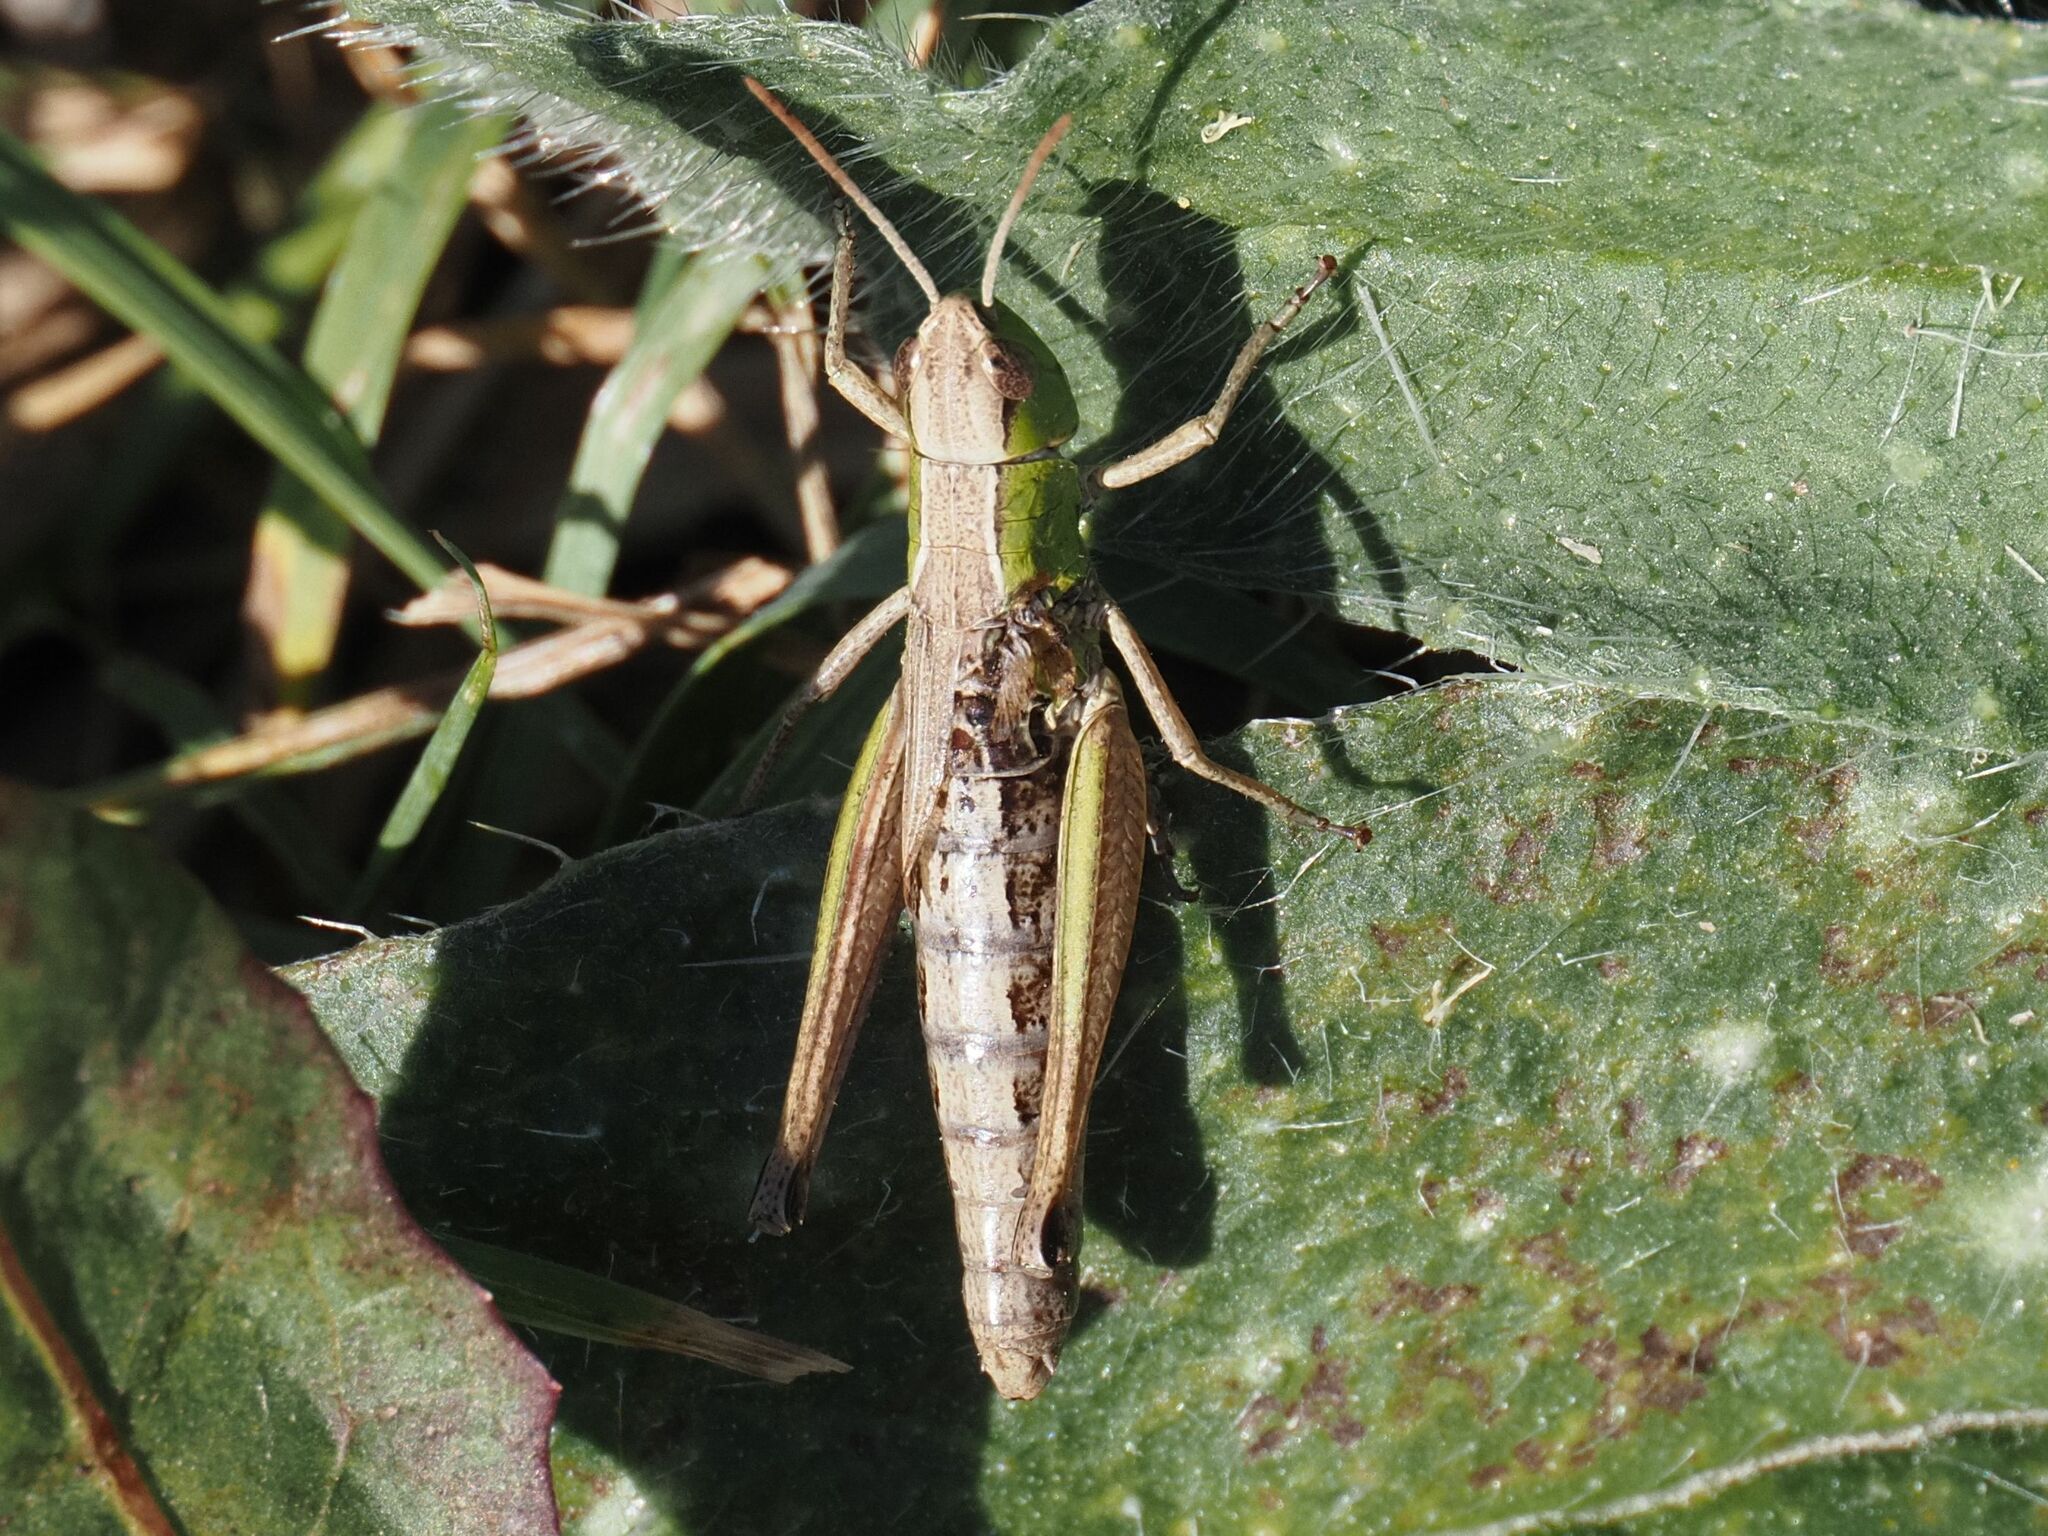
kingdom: Animalia
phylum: Arthropoda
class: Insecta
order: Orthoptera
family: Acrididae
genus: Pseudochorthippus
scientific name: Pseudochorthippus parallelus
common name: Meadow grasshopper
